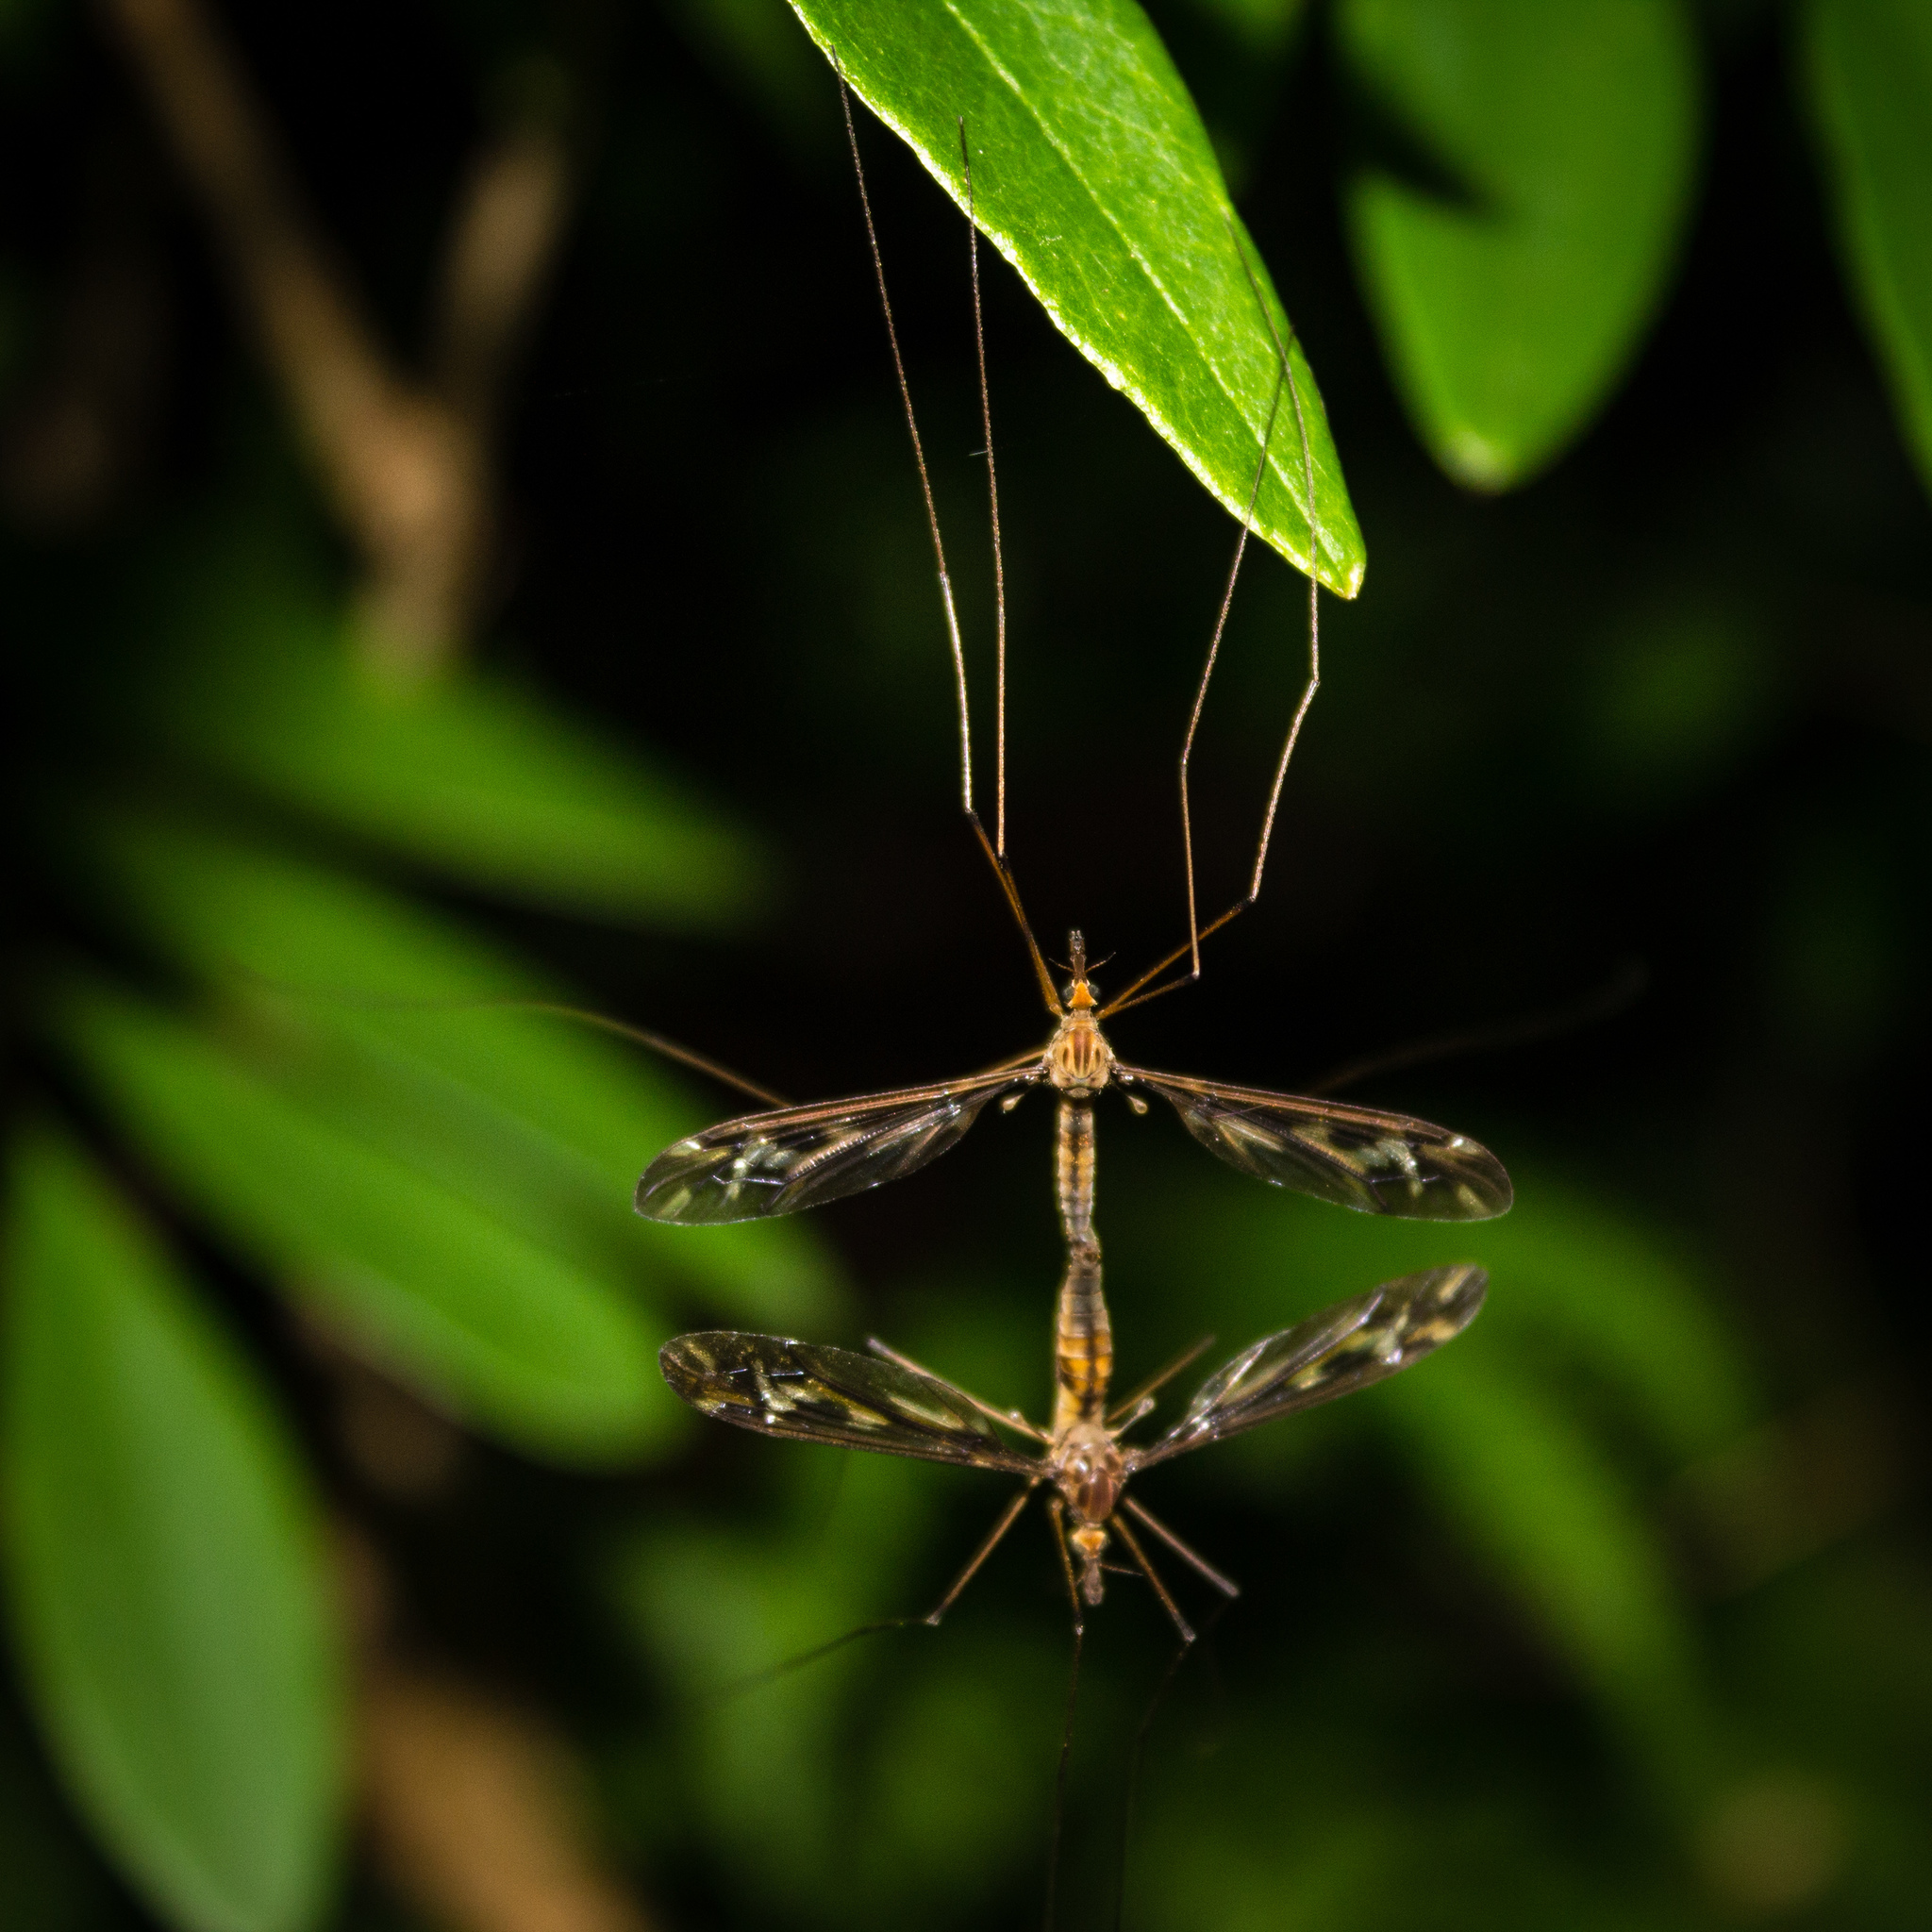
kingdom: Animalia
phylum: Arthropoda
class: Insecta
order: Diptera
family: Tipulidae
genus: Leptotarsus
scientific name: Leptotarsus huttoni
